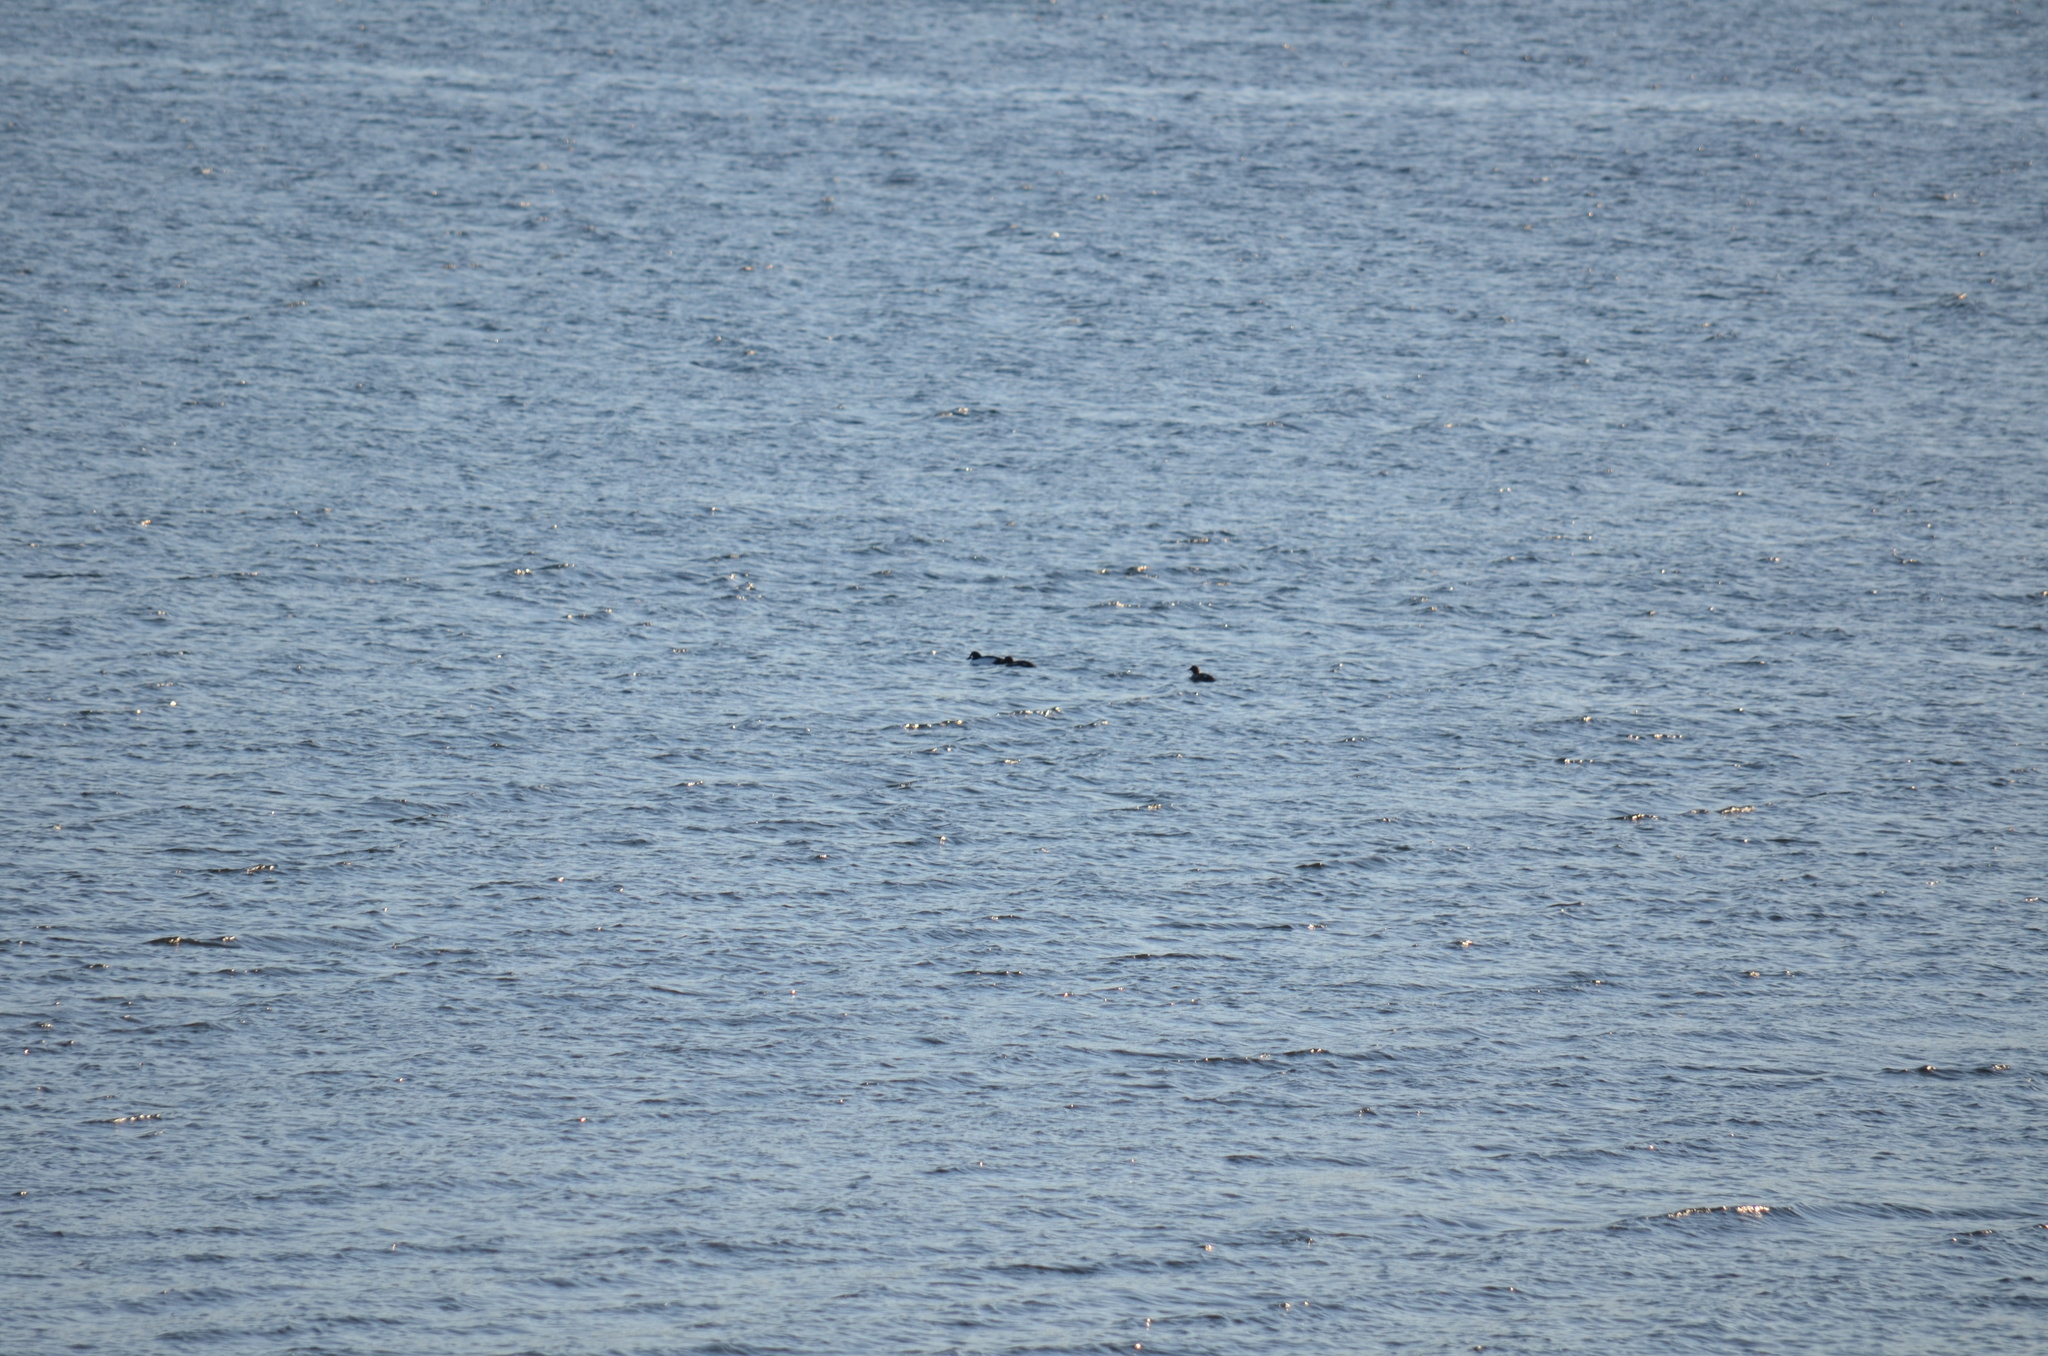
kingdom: Animalia
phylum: Chordata
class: Aves
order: Anseriformes
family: Anatidae
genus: Bucephala
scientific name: Bucephala clangula
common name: Common goldeneye
